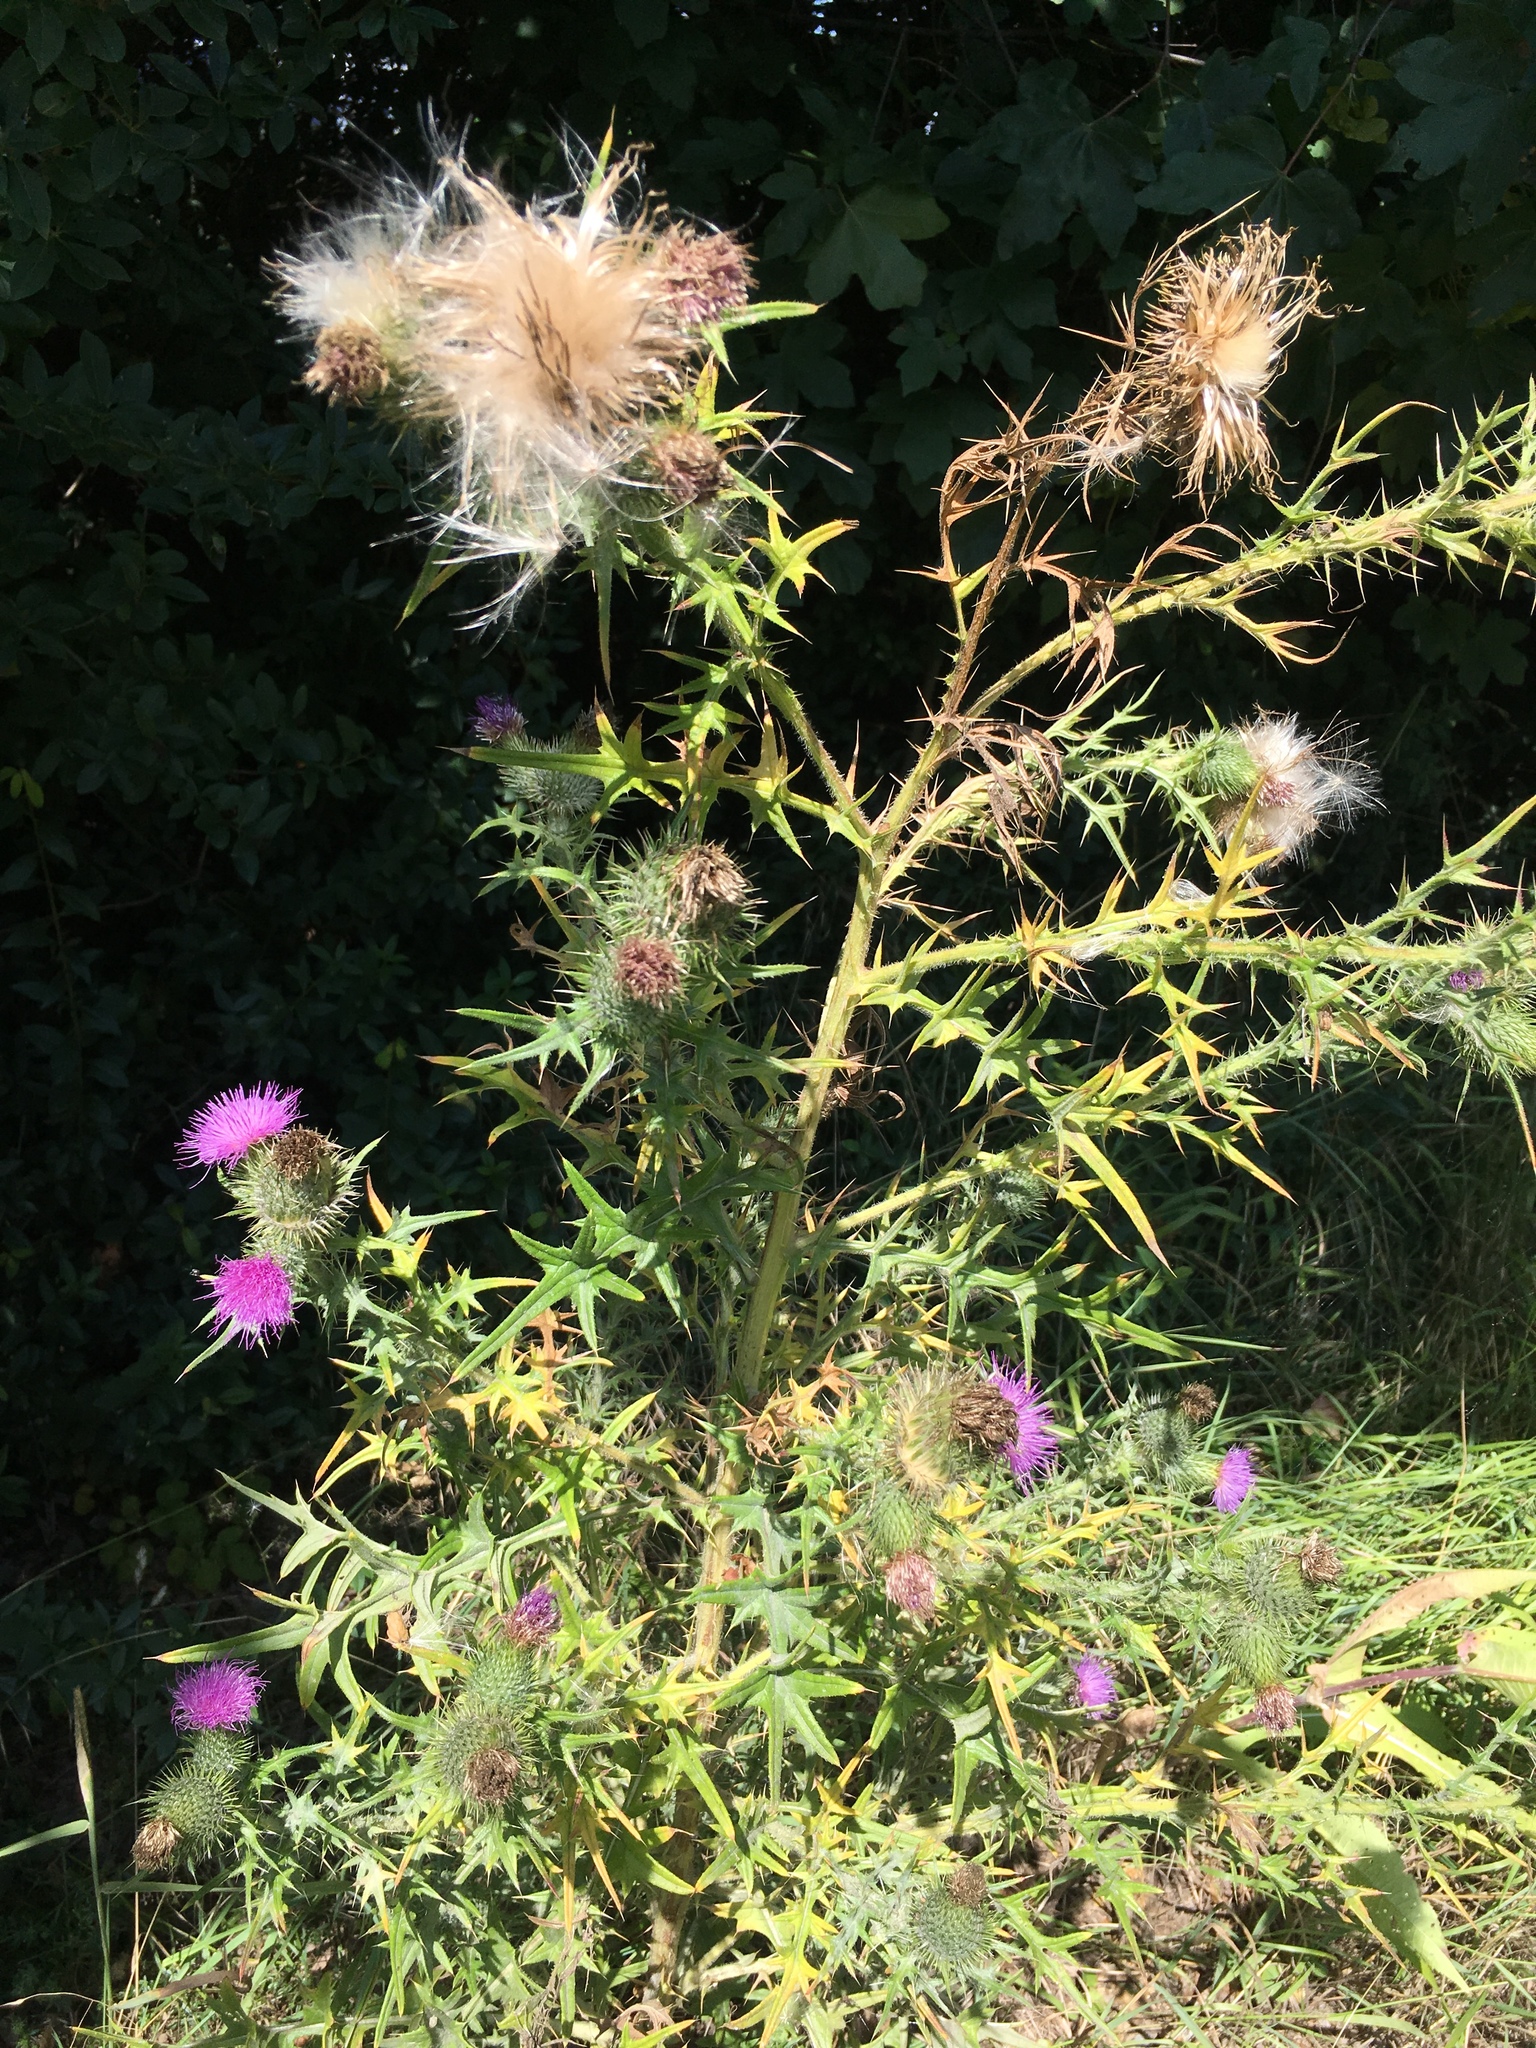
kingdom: Plantae
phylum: Tracheophyta
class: Magnoliopsida
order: Asterales
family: Asteraceae
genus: Cirsium
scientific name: Cirsium vulgare
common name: Bull thistle
